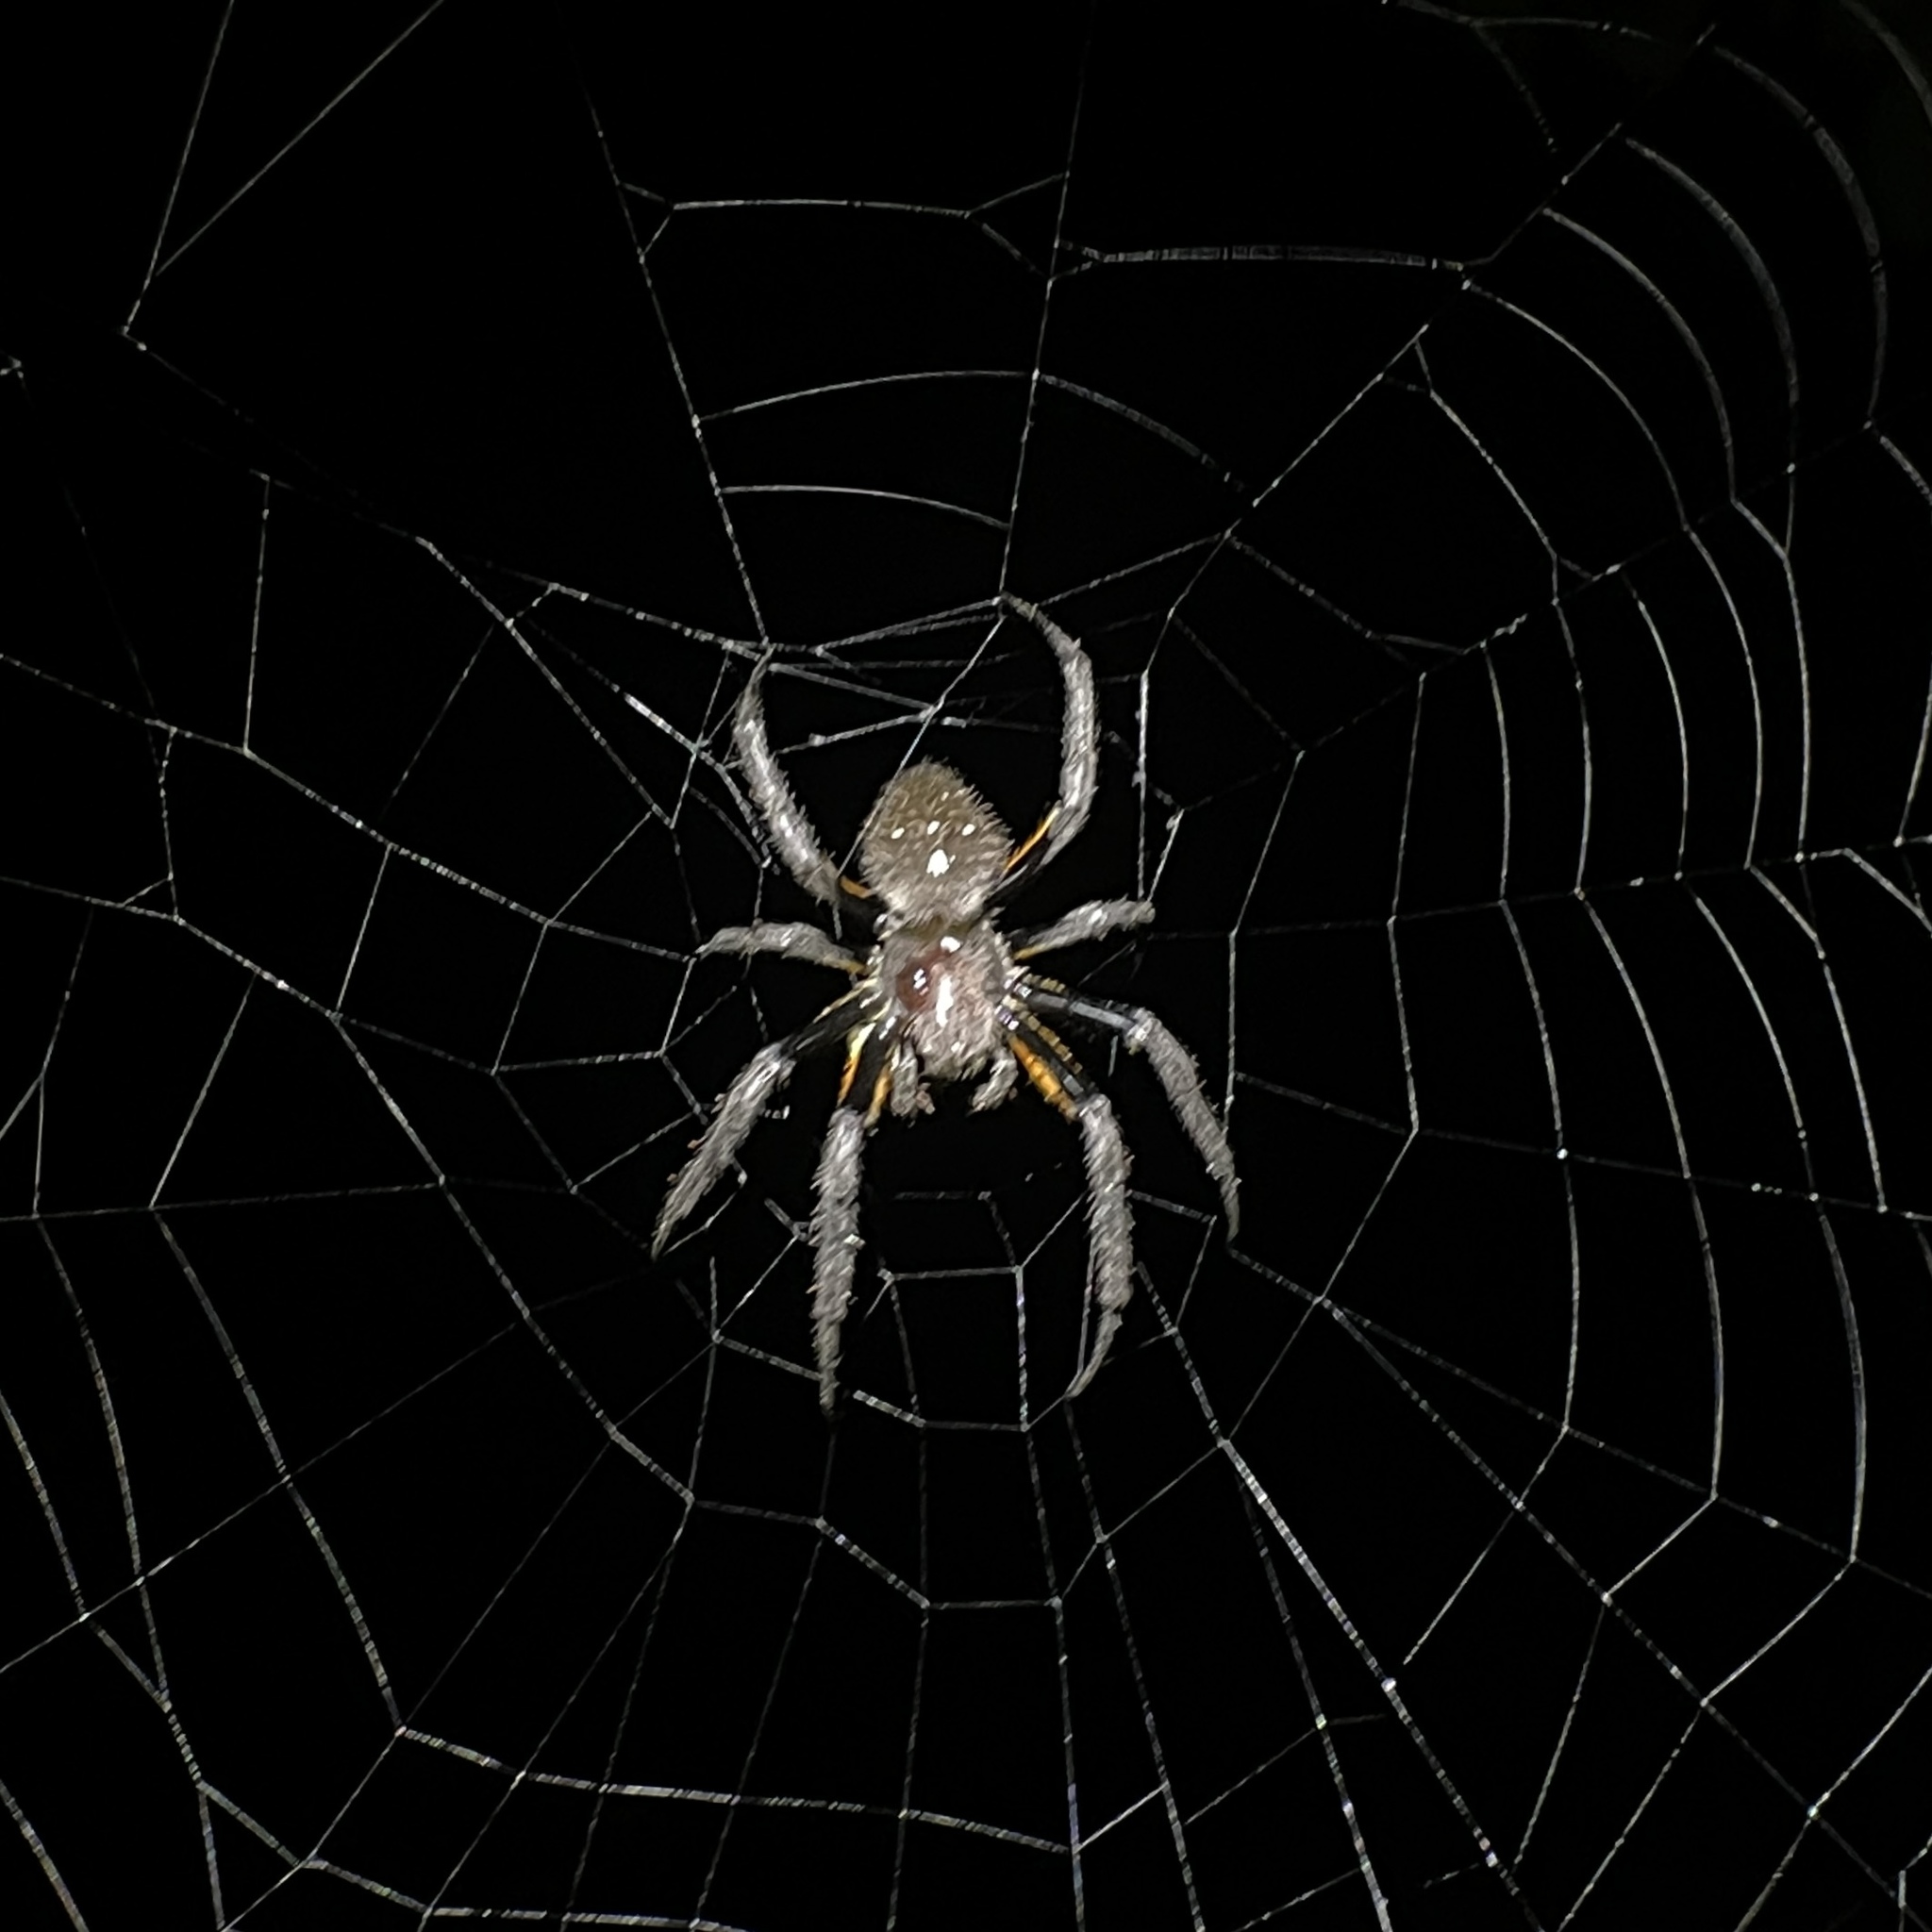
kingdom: Animalia
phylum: Arthropoda
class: Arachnida
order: Araneae
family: Araneidae
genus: Eriophora
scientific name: Eriophora fuliginea
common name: Orb weavers
